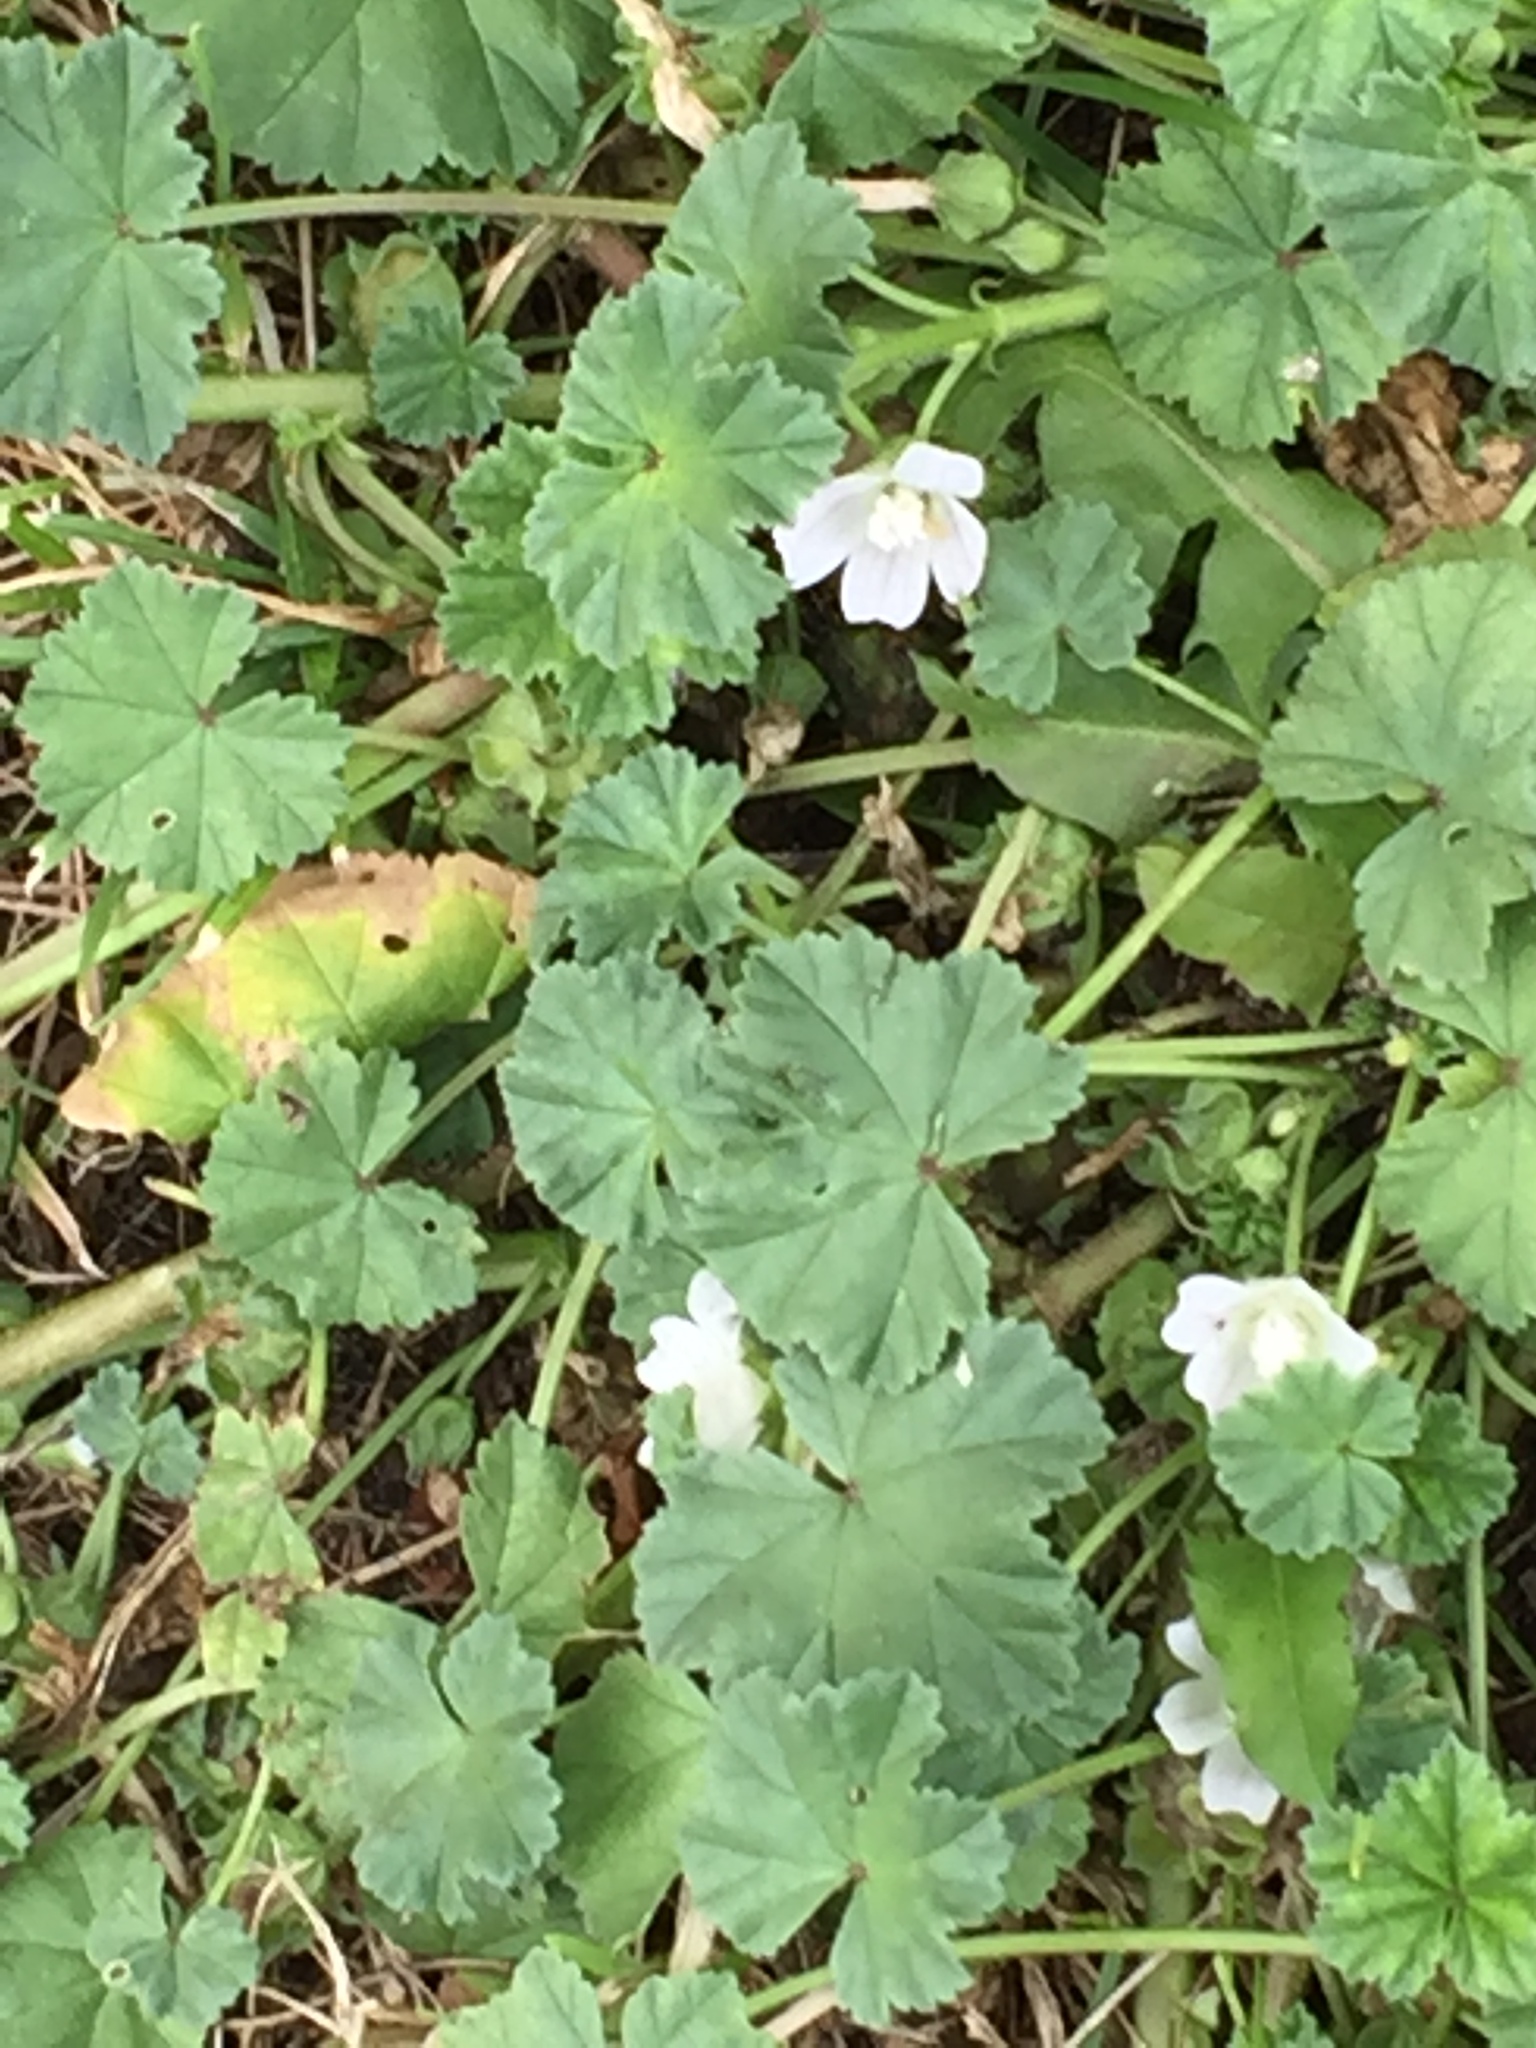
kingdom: Plantae
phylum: Tracheophyta
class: Magnoliopsida
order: Malvales
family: Malvaceae
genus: Malva
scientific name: Malva neglecta
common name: Common mallow
